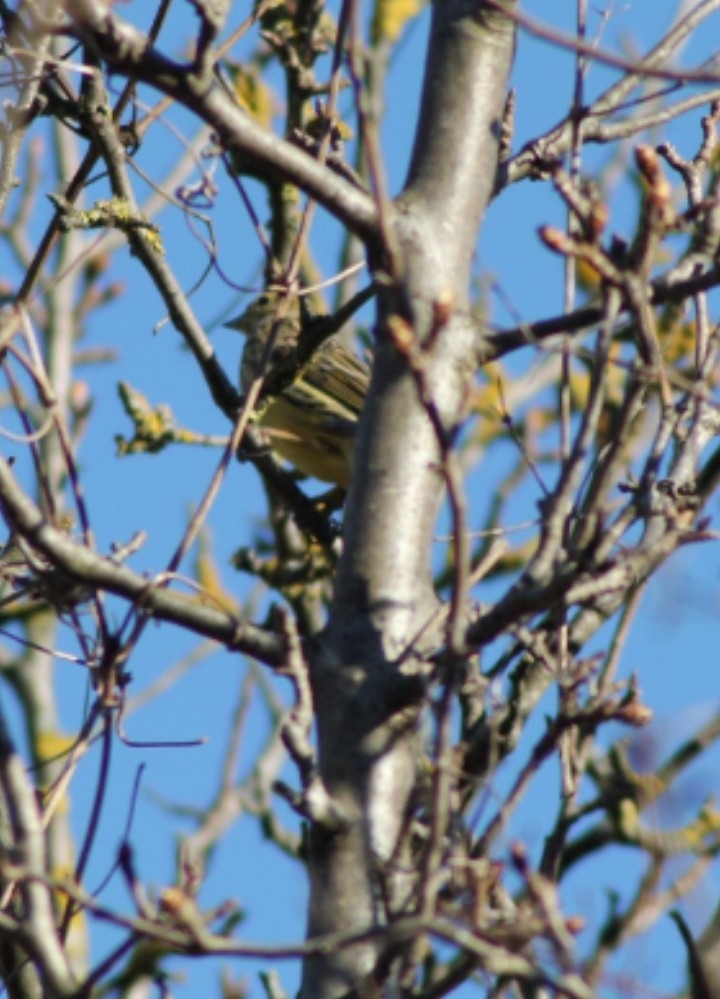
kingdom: Animalia
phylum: Chordata
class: Aves
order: Passeriformes
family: Emberizidae
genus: Emberiza
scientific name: Emberiza citrinella
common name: Yellowhammer
